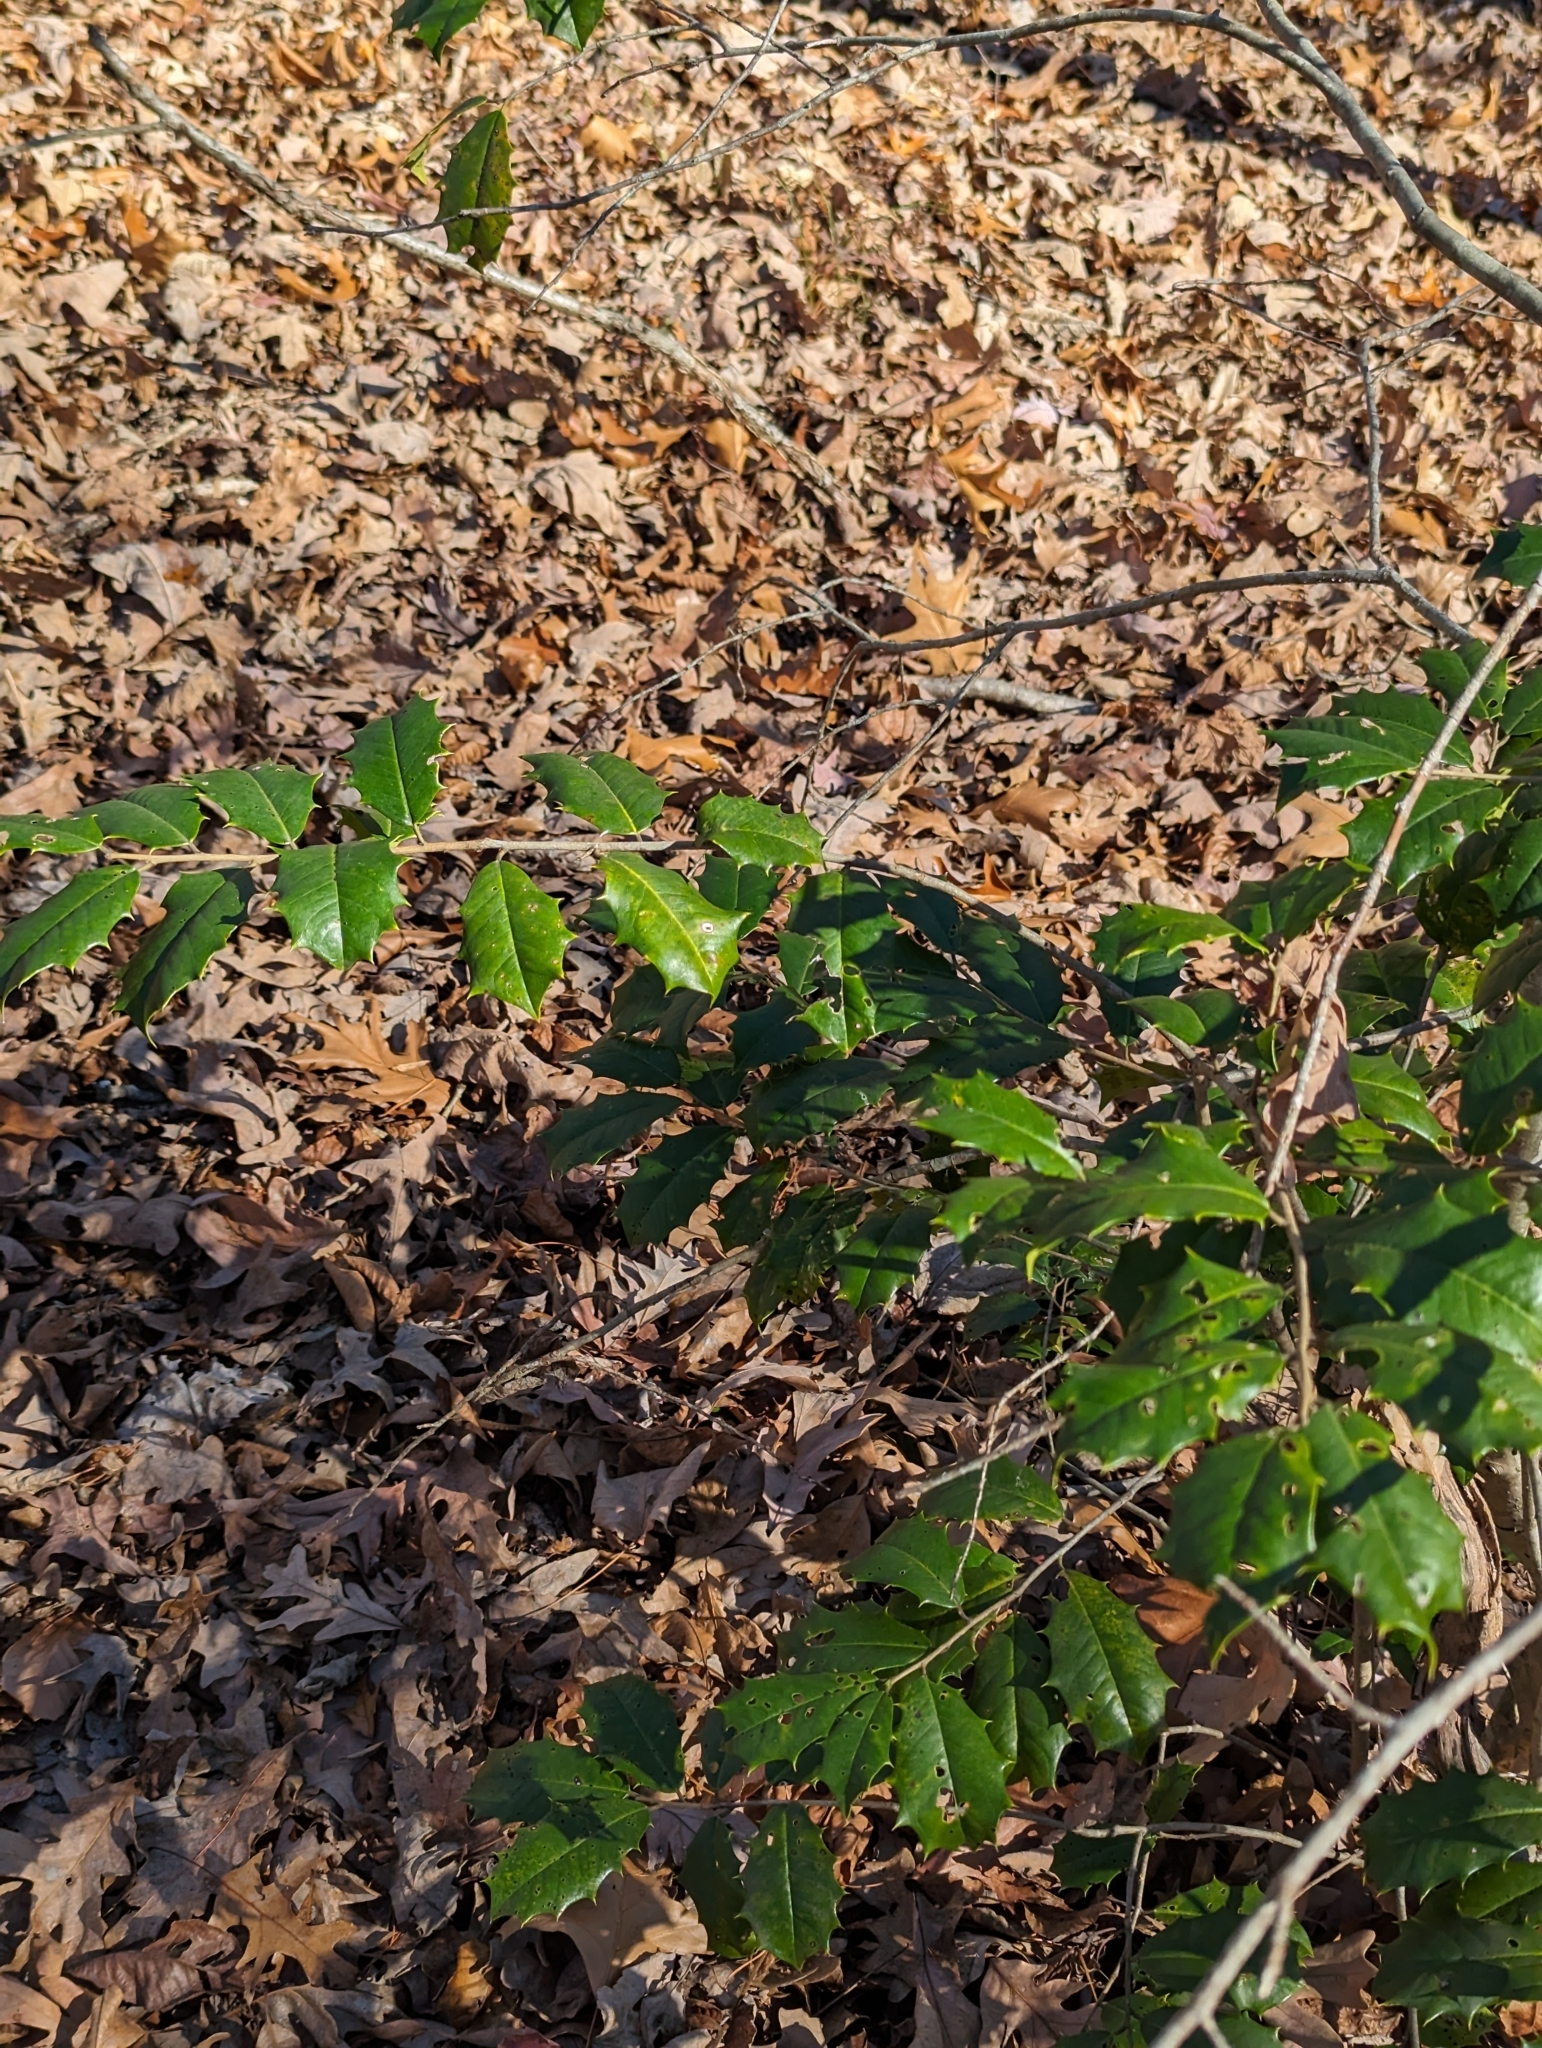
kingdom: Plantae
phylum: Tracheophyta
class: Magnoliopsida
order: Aquifoliales
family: Aquifoliaceae
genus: Ilex
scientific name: Ilex opaca
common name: American holly
